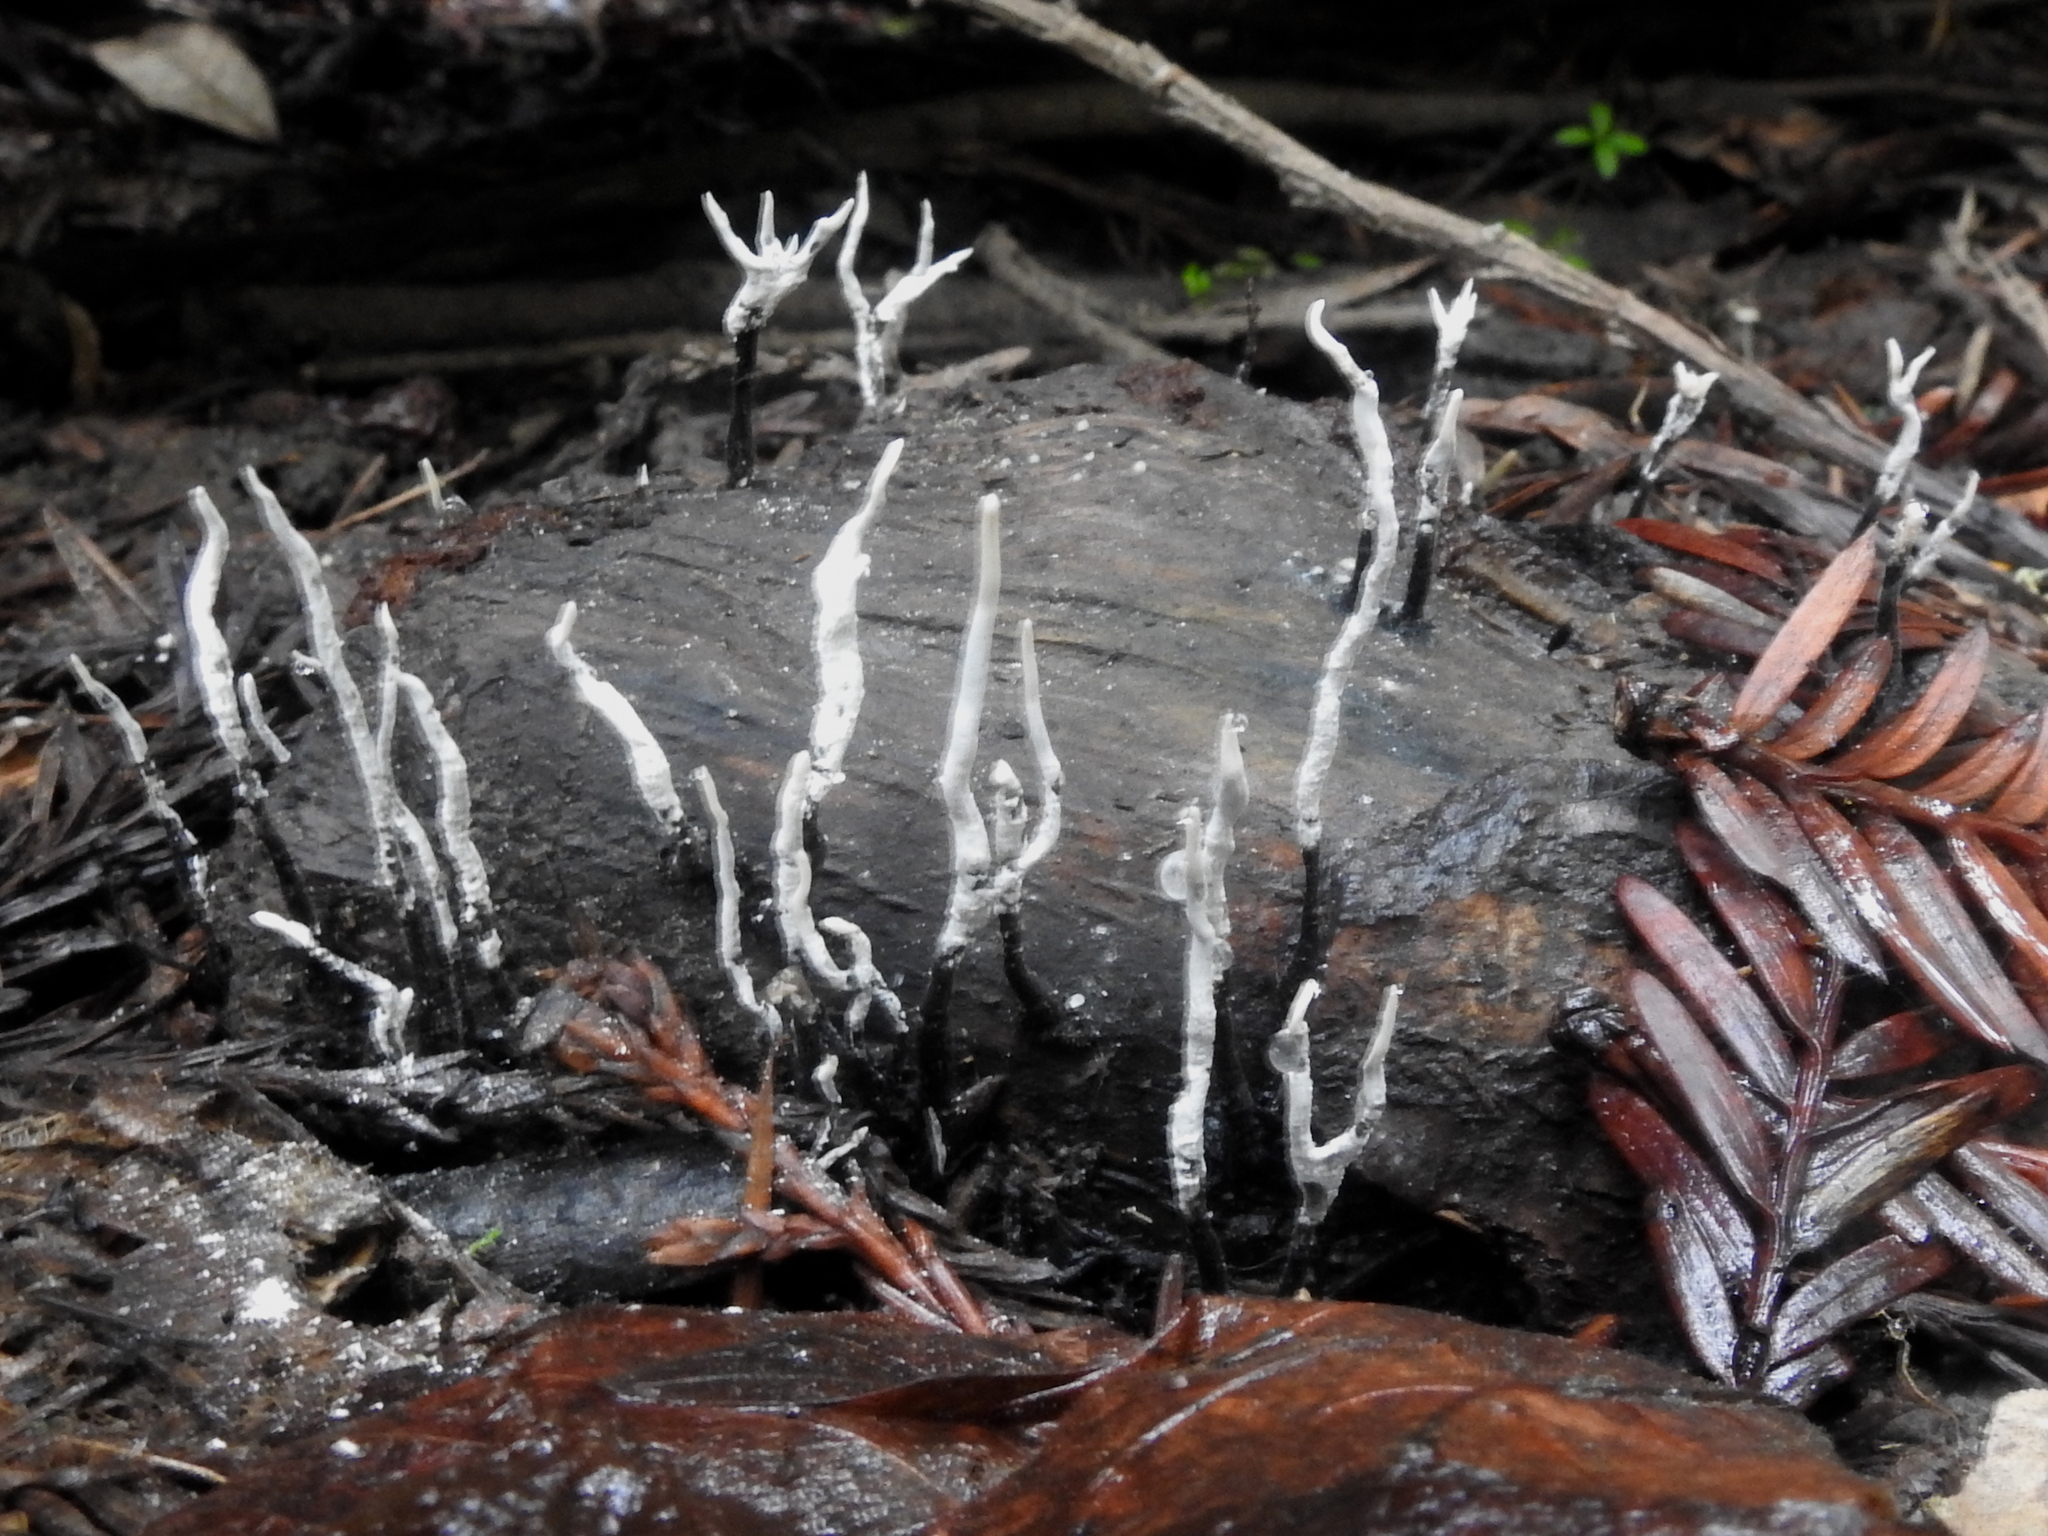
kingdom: Fungi
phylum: Ascomycota
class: Sordariomycetes
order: Xylariales
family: Xylariaceae
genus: Xylaria
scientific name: Xylaria hypoxylon
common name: Candle-snuff fungus
